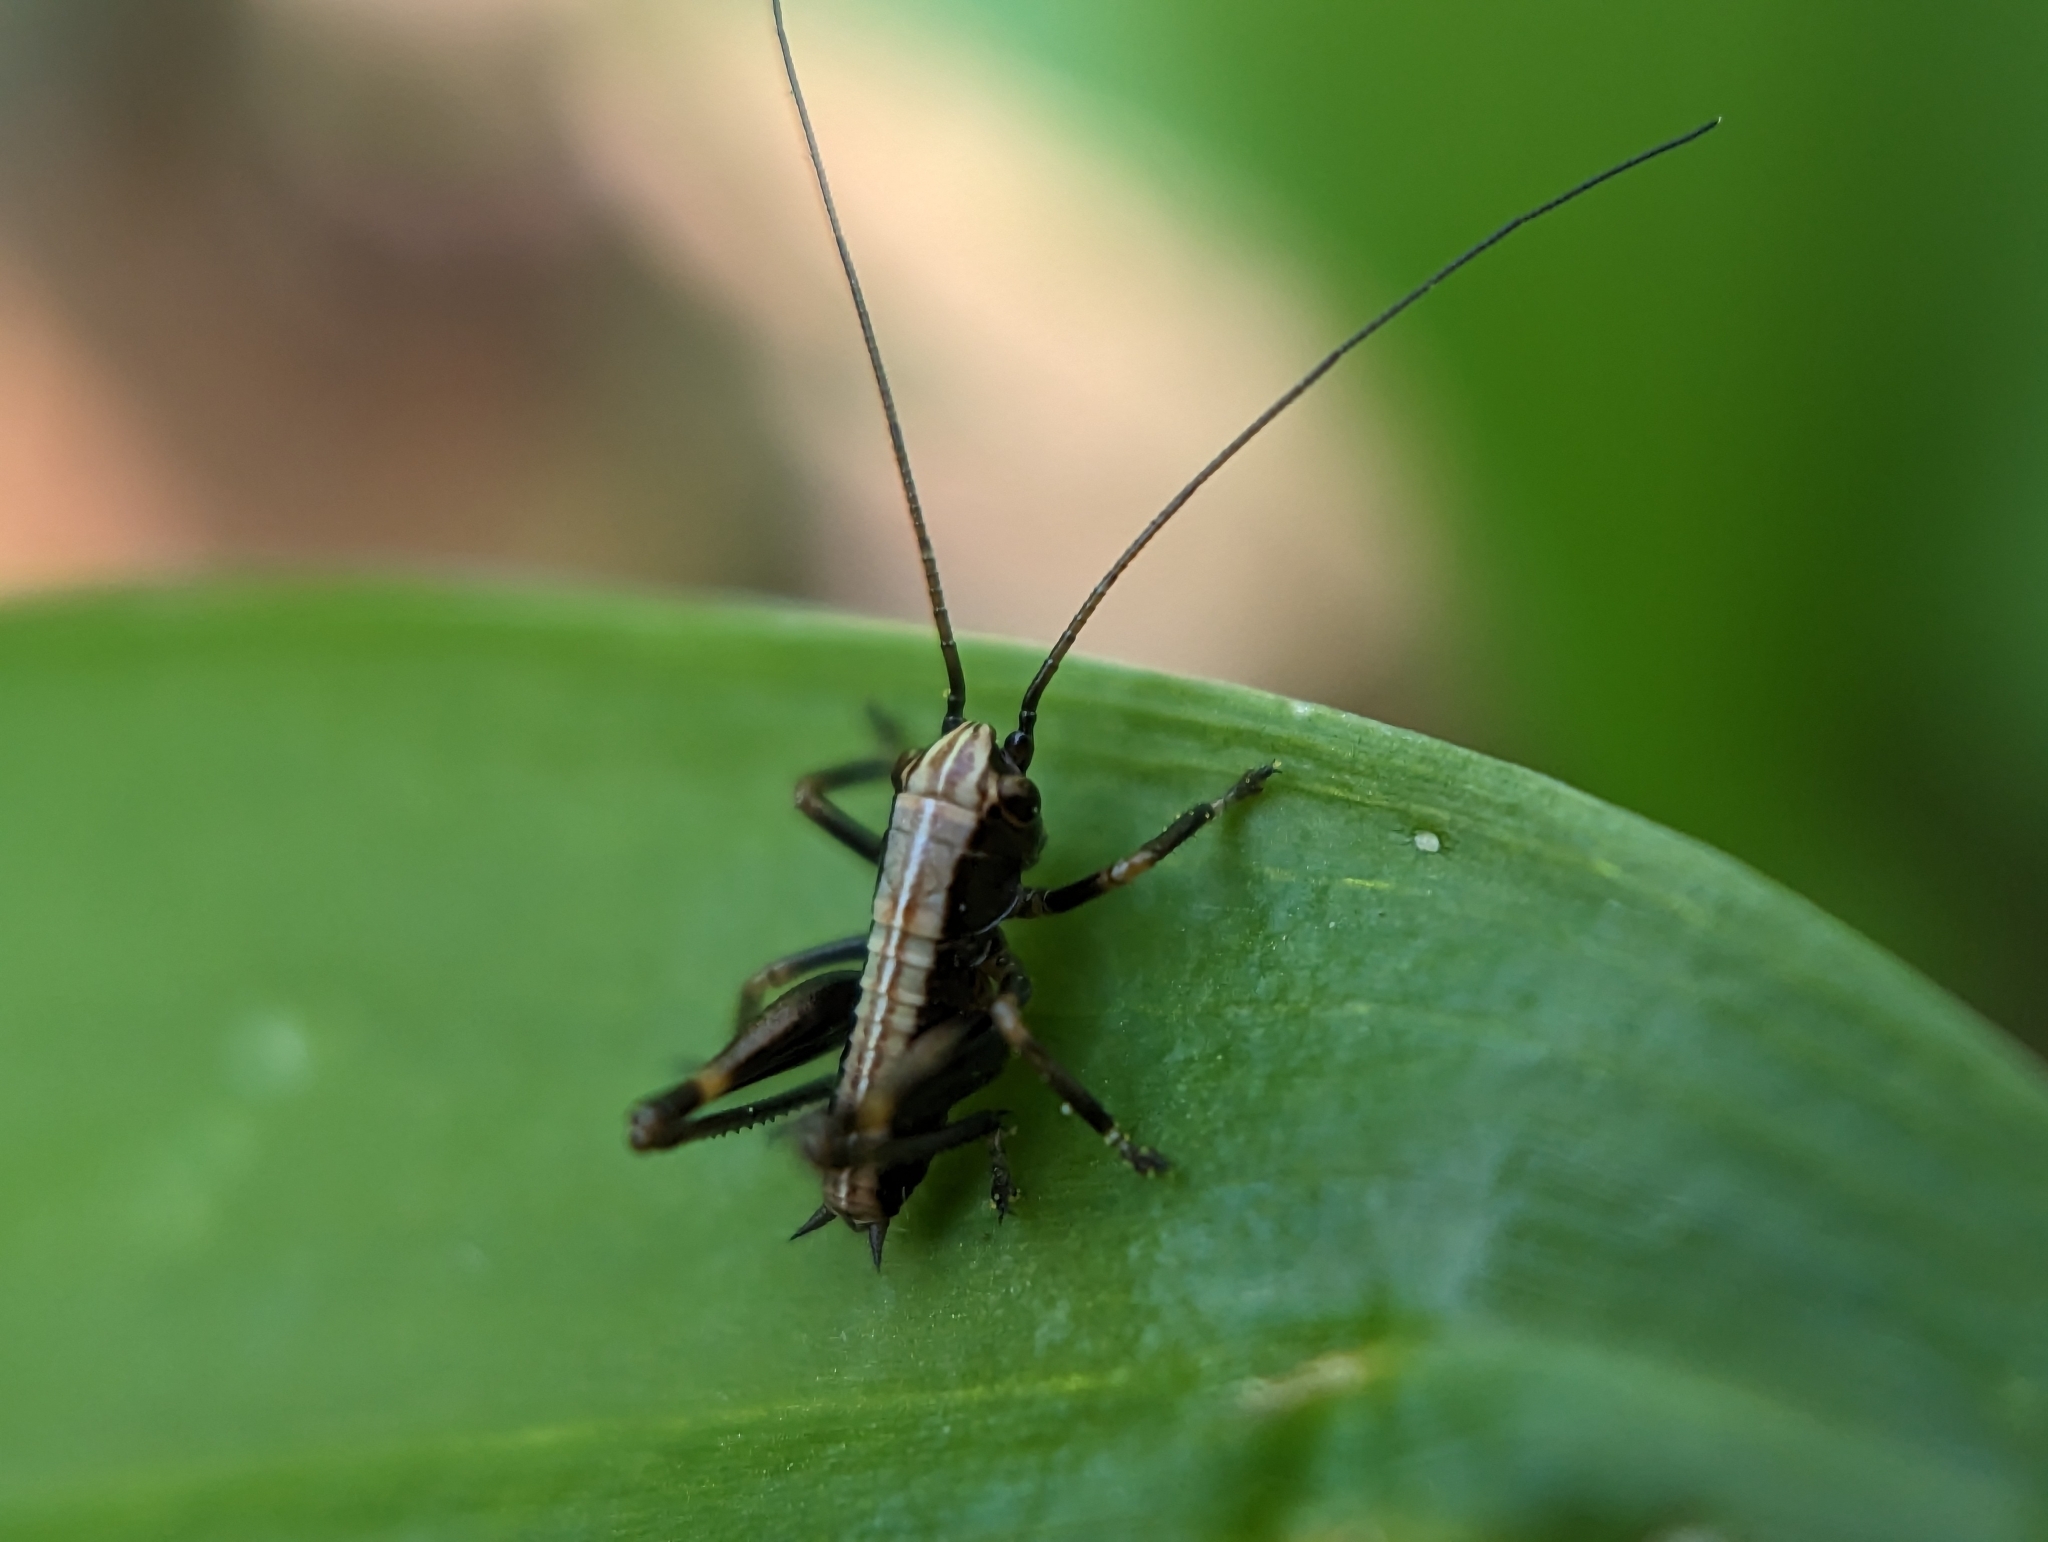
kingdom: Animalia
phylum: Arthropoda
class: Insecta
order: Orthoptera
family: Tettigoniidae
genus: Pholidoptera
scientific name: Pholidoptera griseoaptera
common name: Dark bush-cricket
